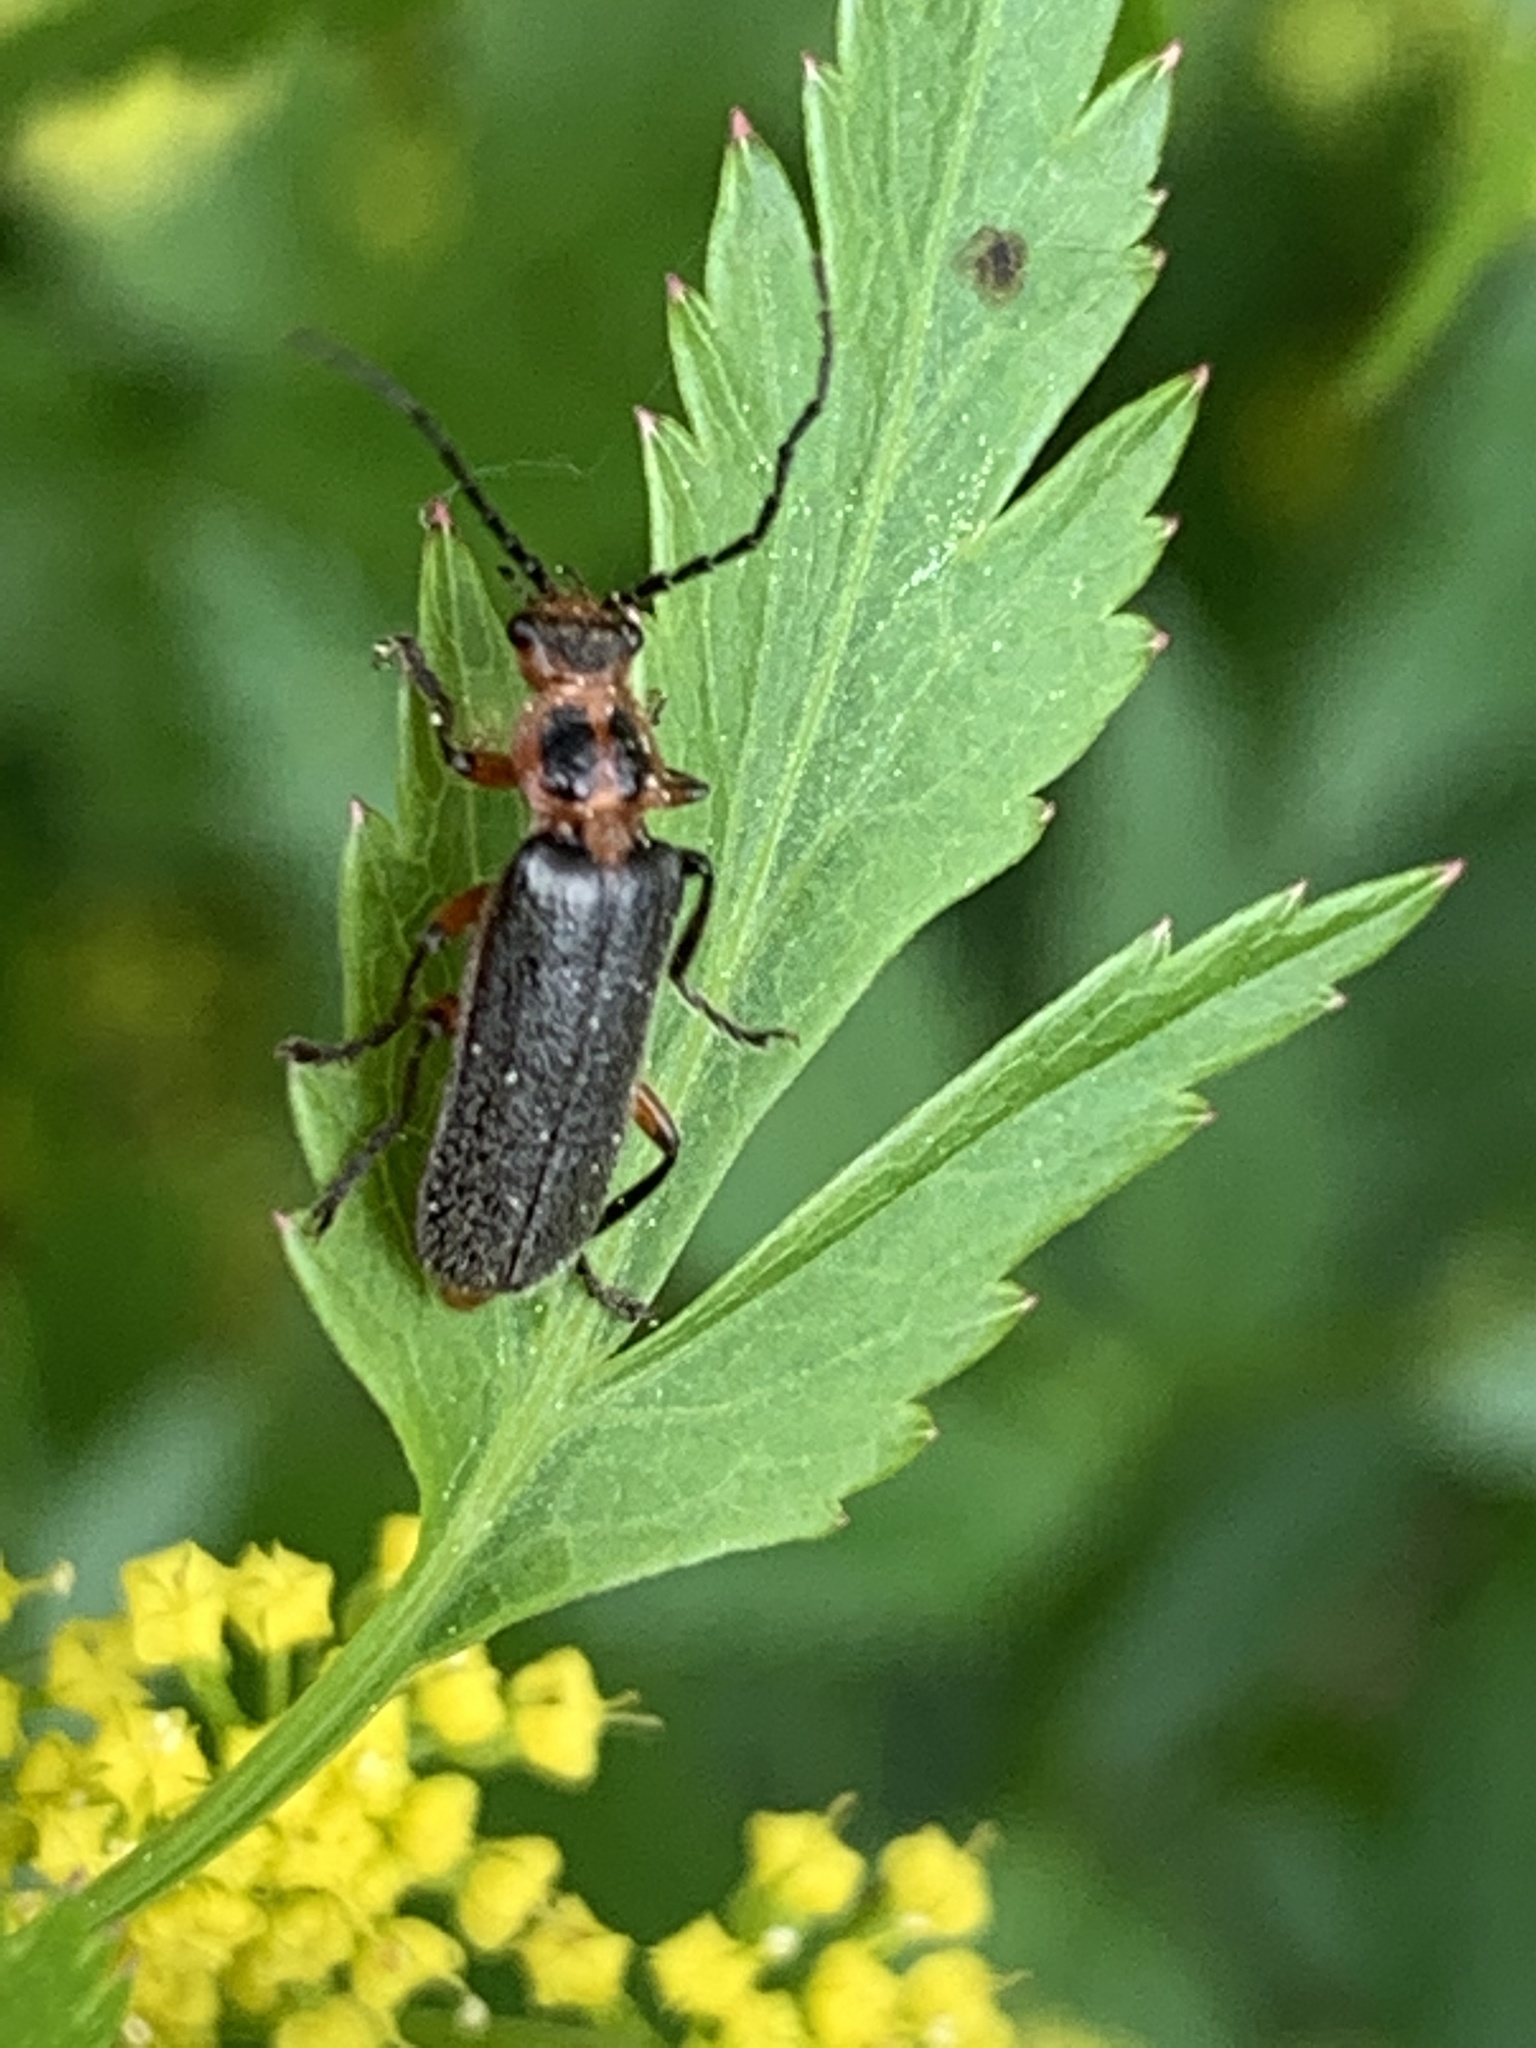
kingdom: Animalia
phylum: Arthropoda
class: Insecta
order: Coleoptera
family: Cantharidae
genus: Atalantycha
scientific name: Atalantycha bilineata
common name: Two-lined leatherwing
